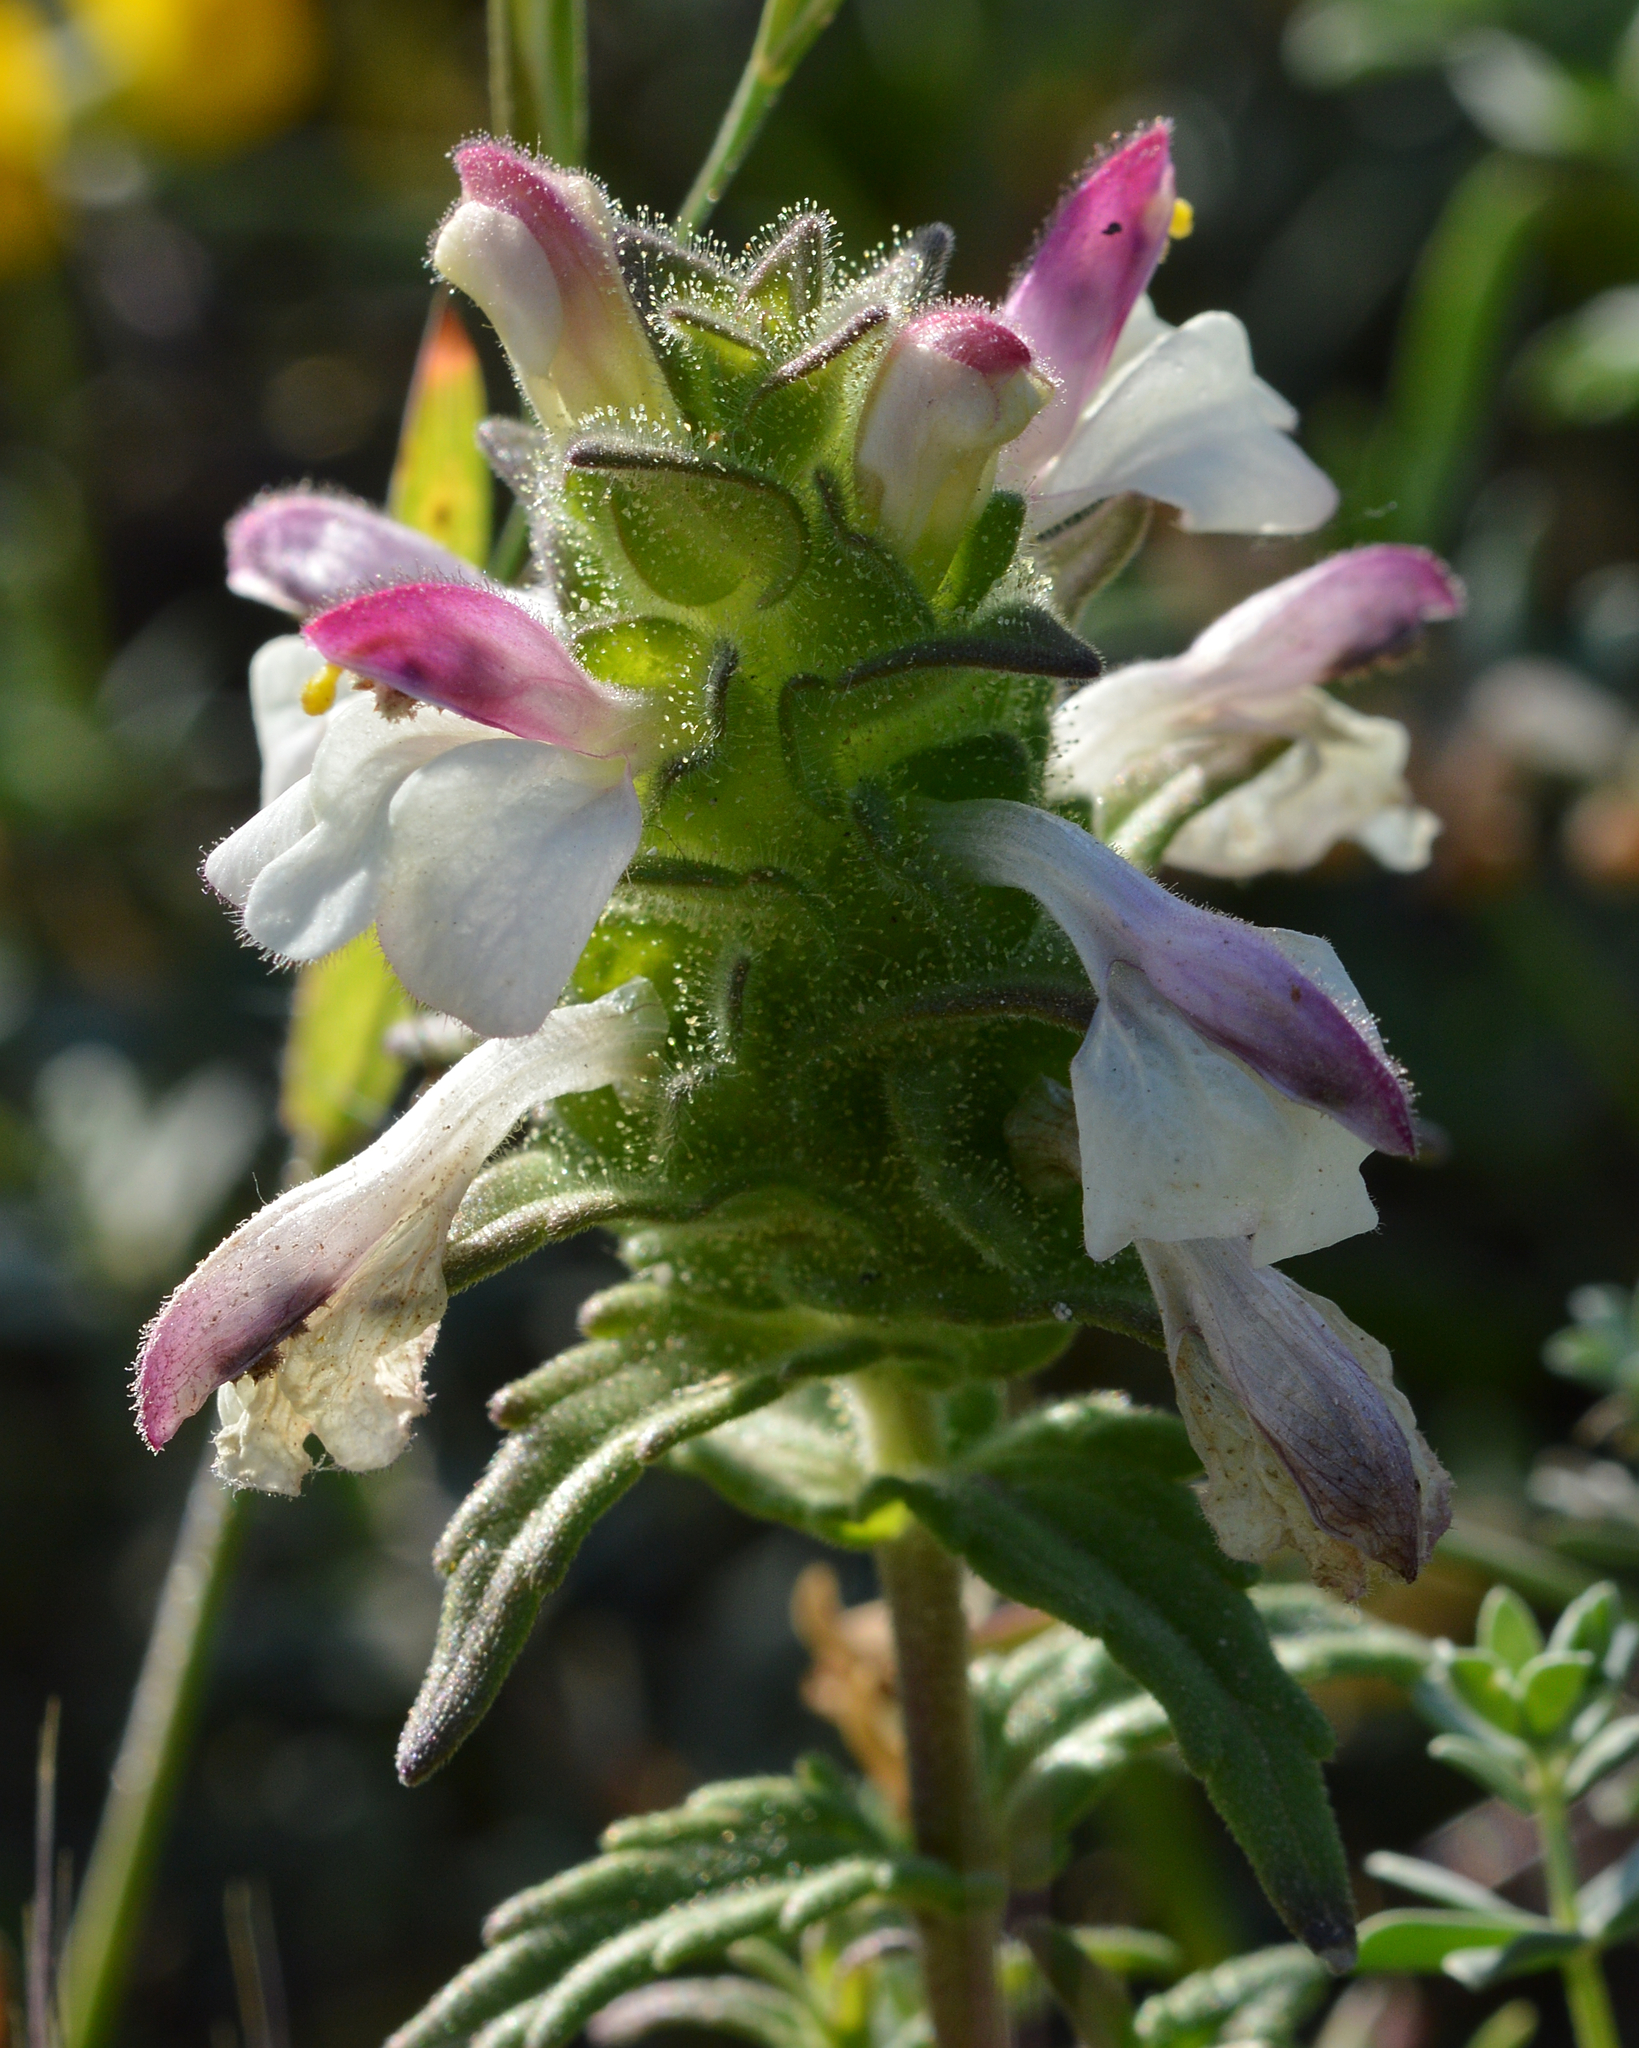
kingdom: Plantae
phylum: Tracheophyta
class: Magnoliopsida
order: Lamiales
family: Orobanchaceae
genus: Bellardia
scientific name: Bellardia trixago
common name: Mediterranean lineseed
